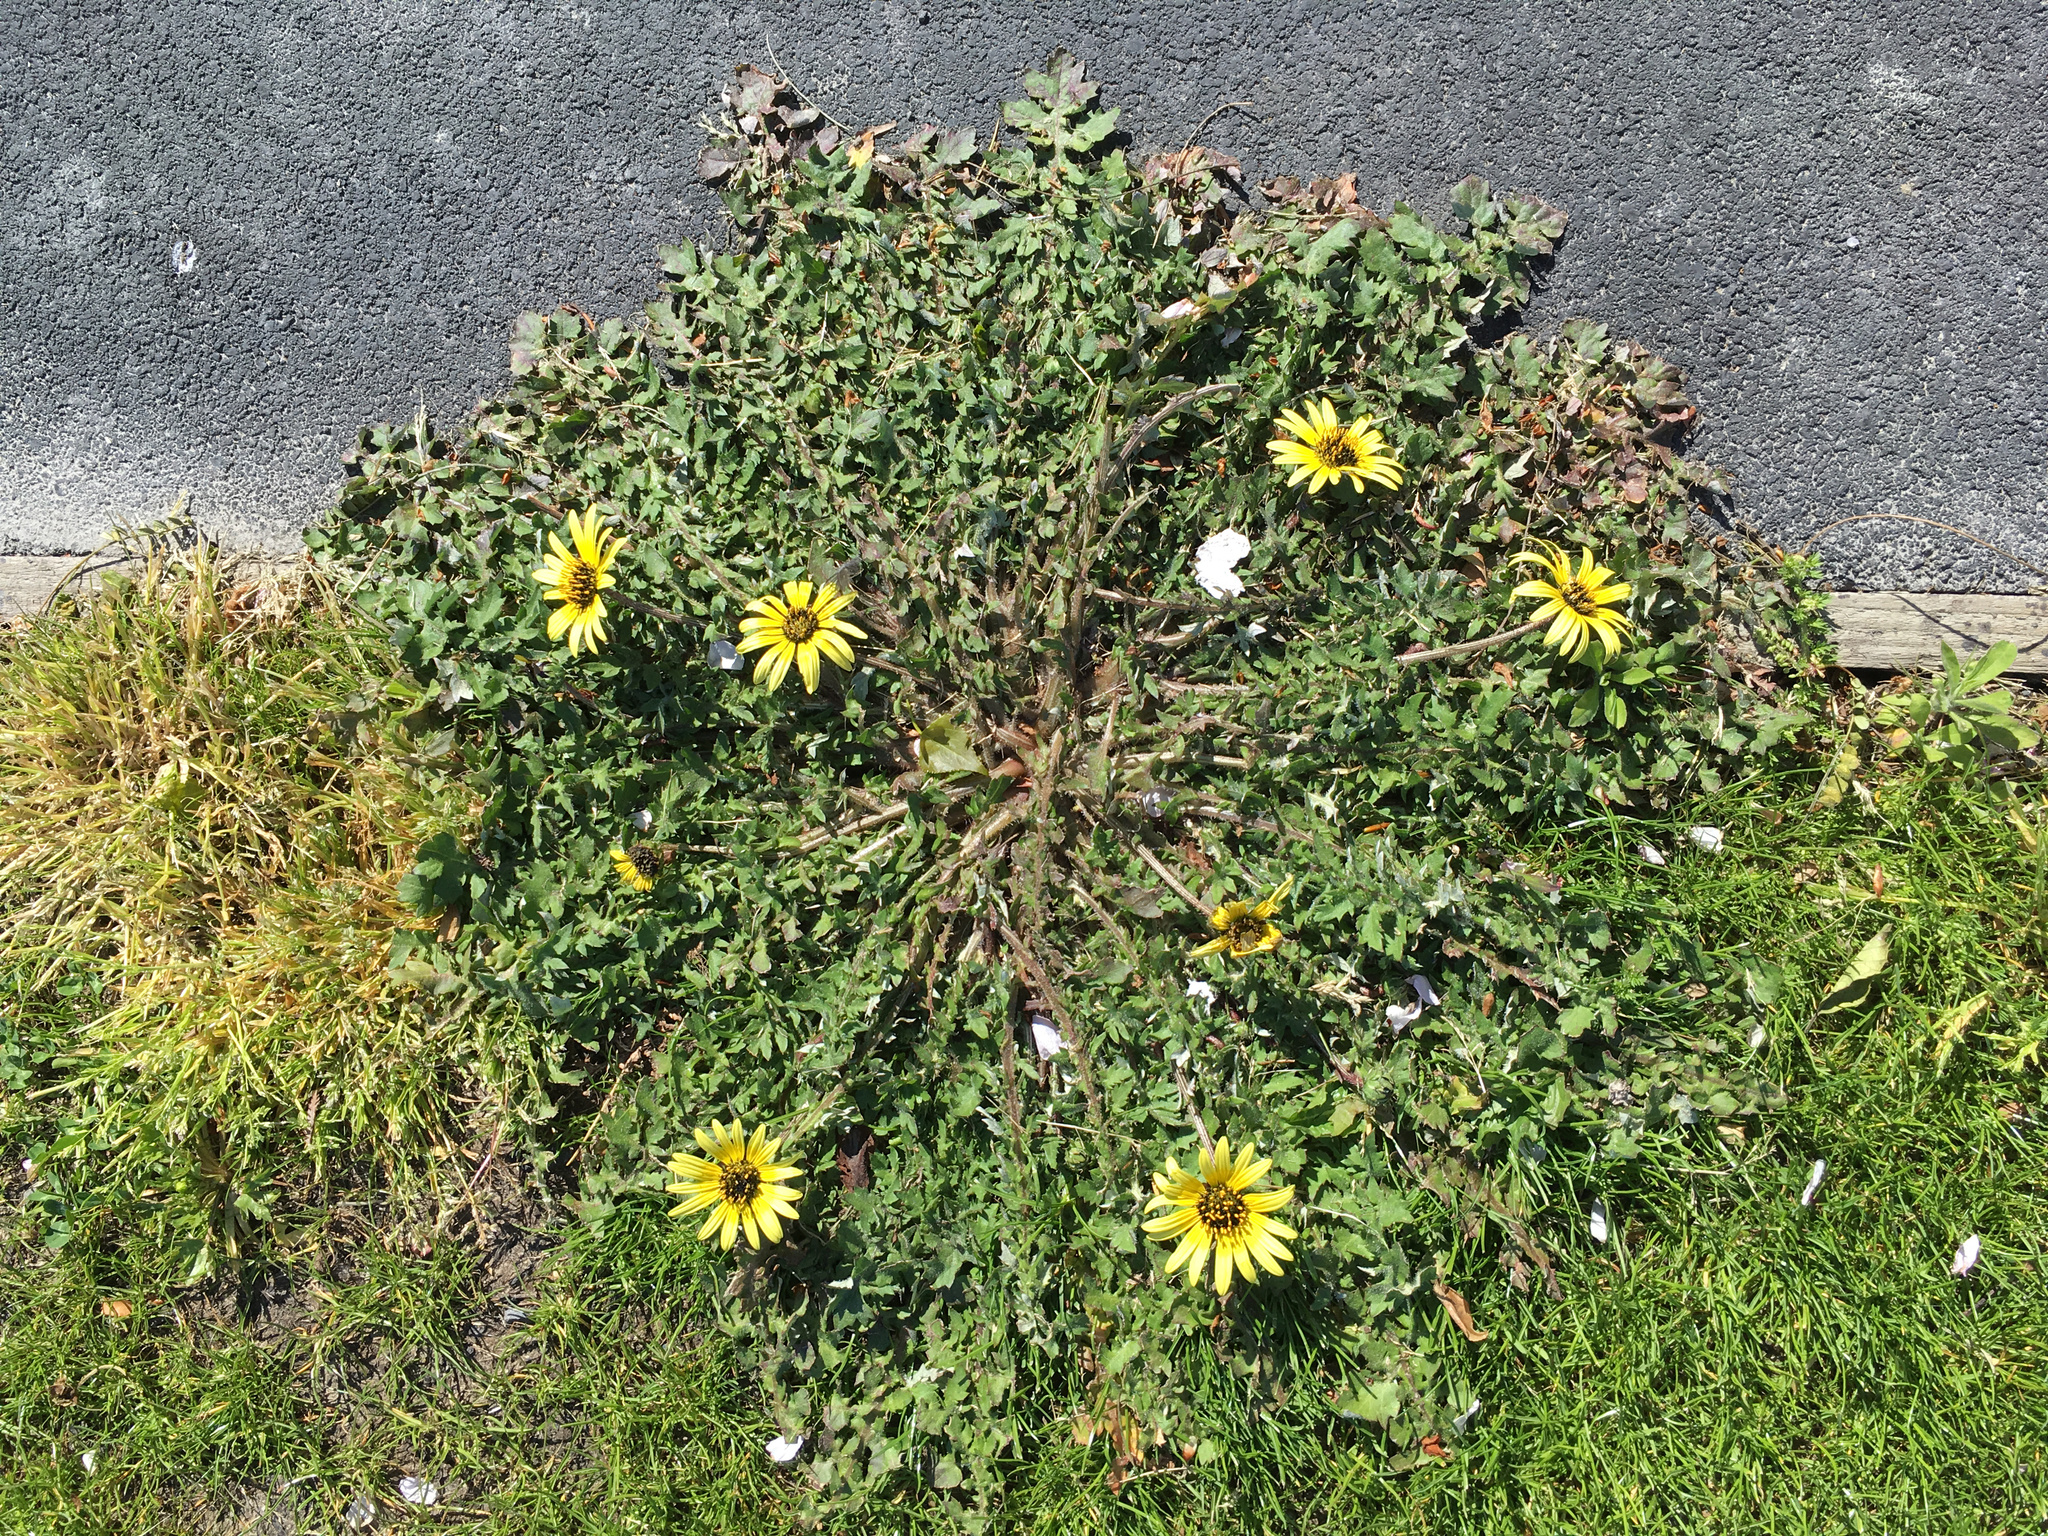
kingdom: Plantae
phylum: Tracheophyta
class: Magnoliopsida
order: Asterales
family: Asteraceae
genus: Arctotheca
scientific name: Arctotheca calendula
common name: Capeweed
